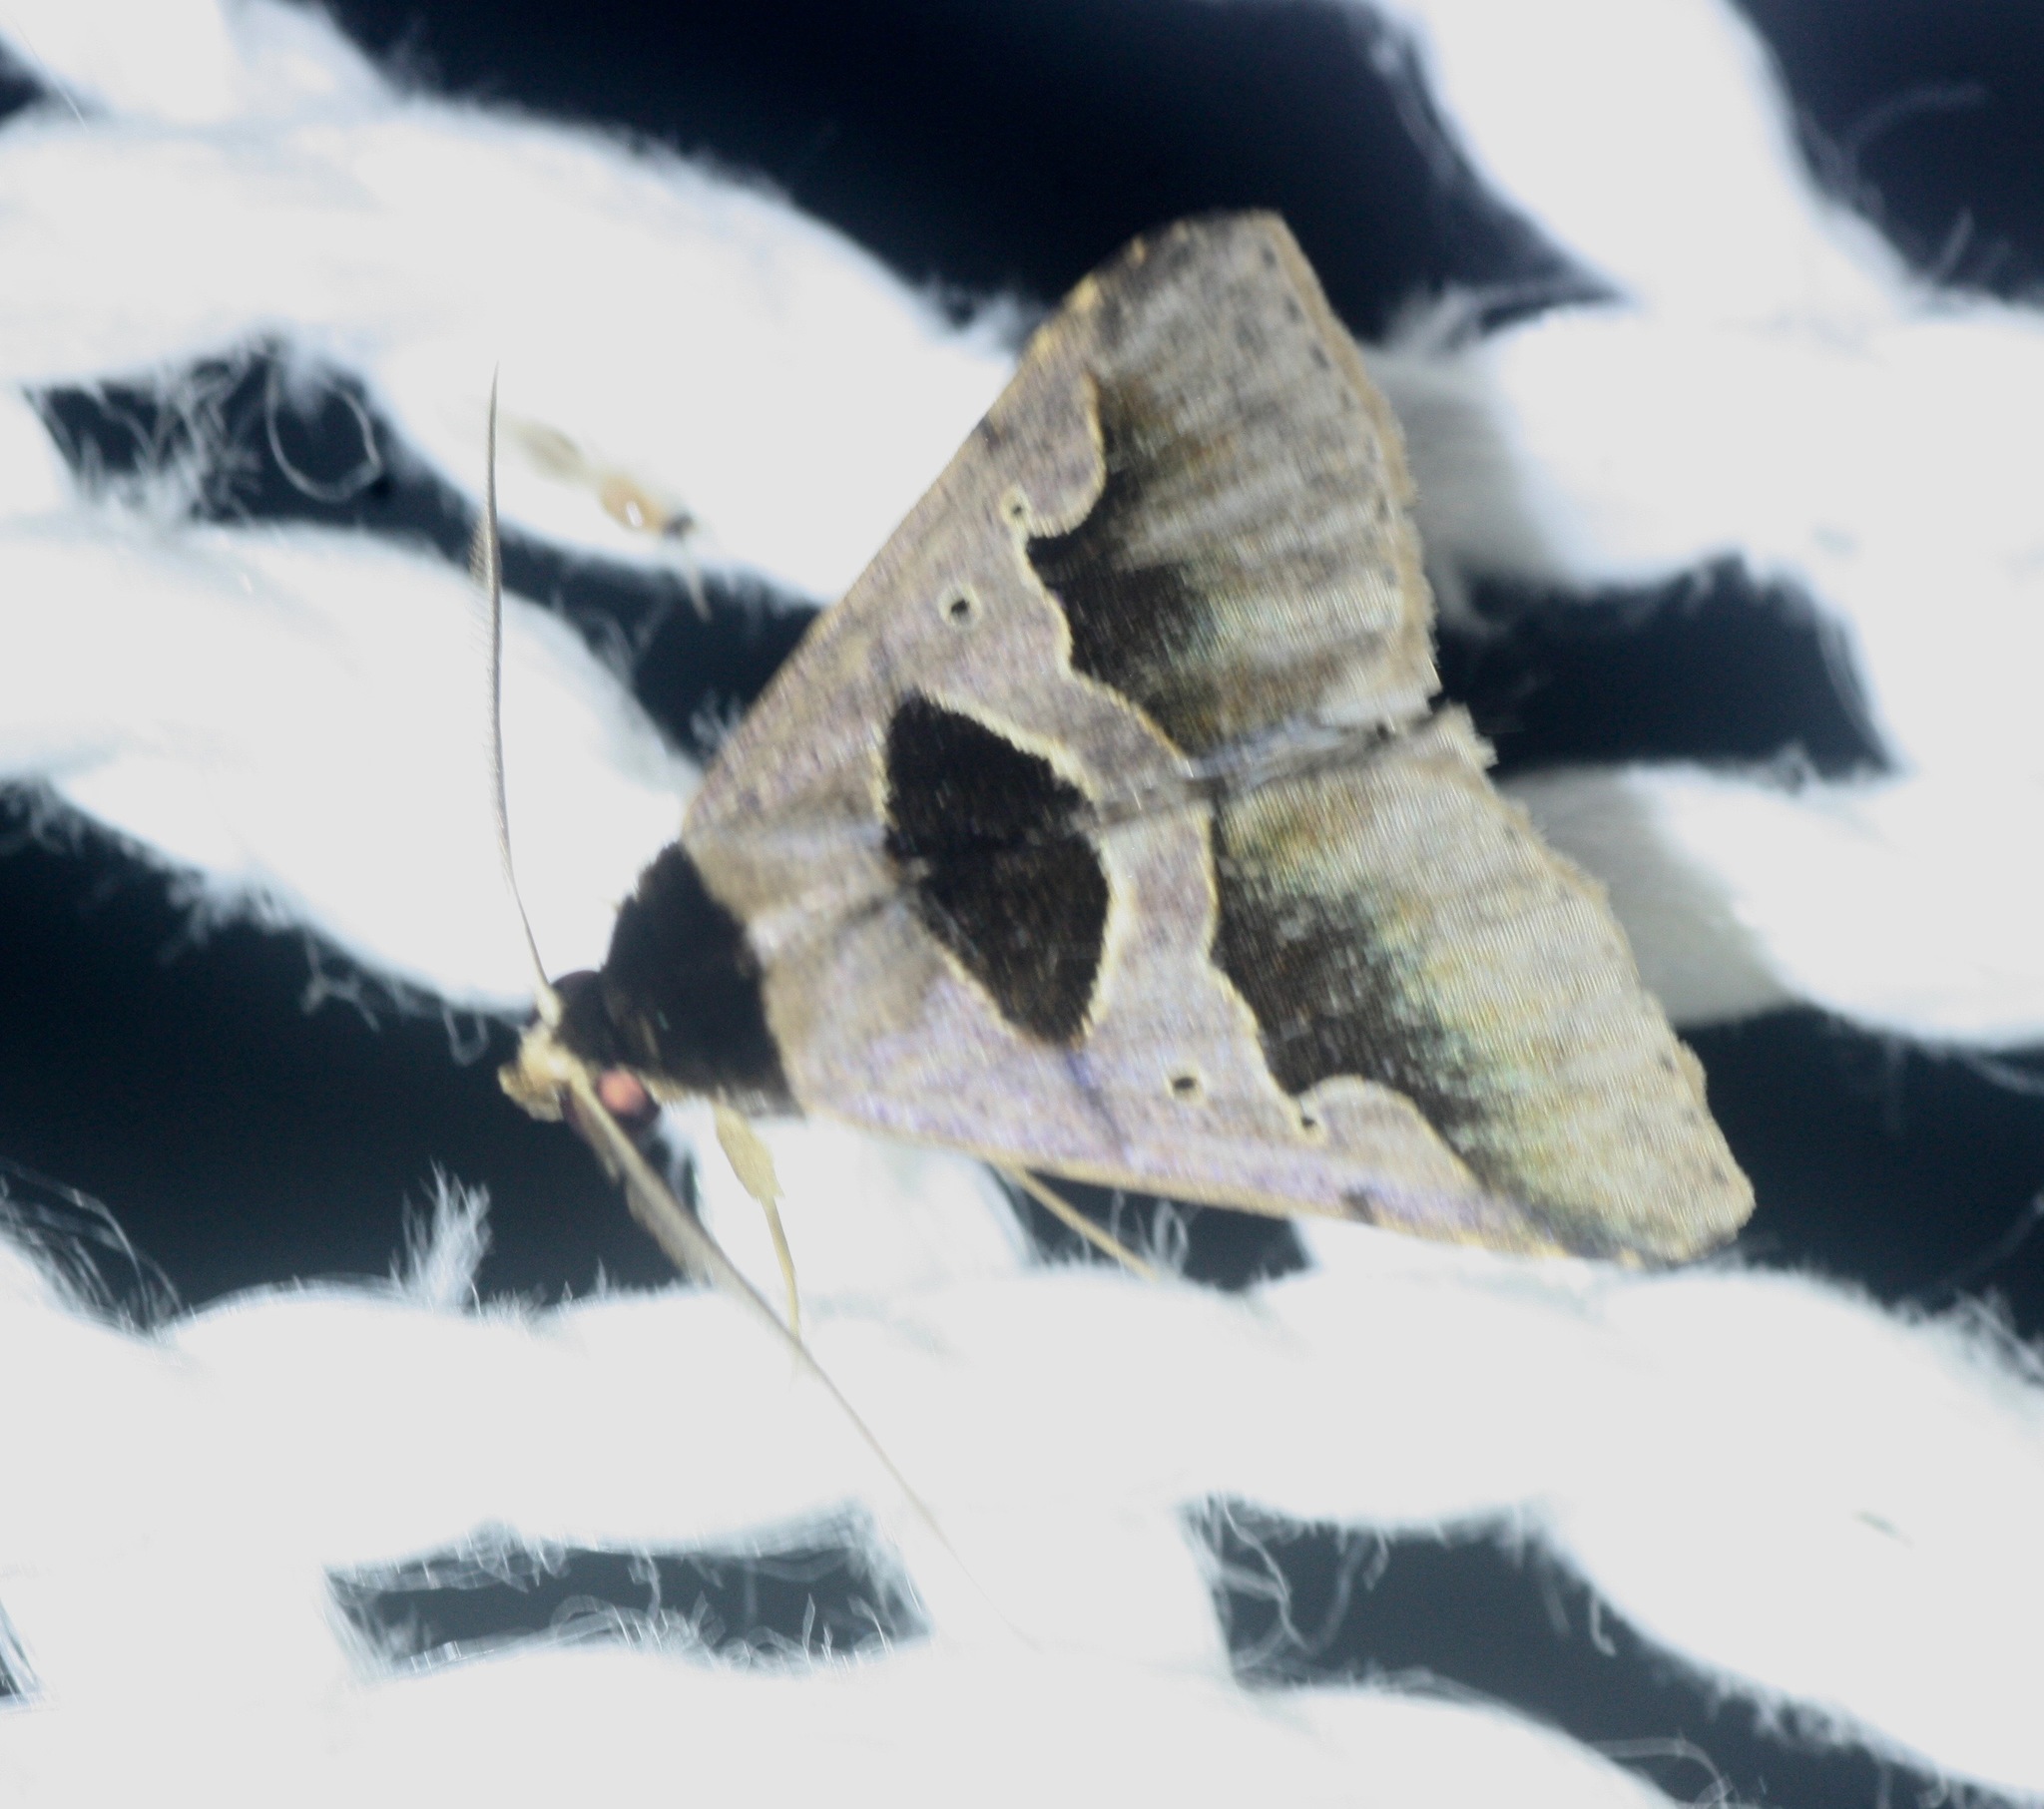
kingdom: Animalia
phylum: Arthropoda
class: Insecta
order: Lepidoptera
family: Erebidae
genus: Anoba
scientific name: Anoba trigonoides
